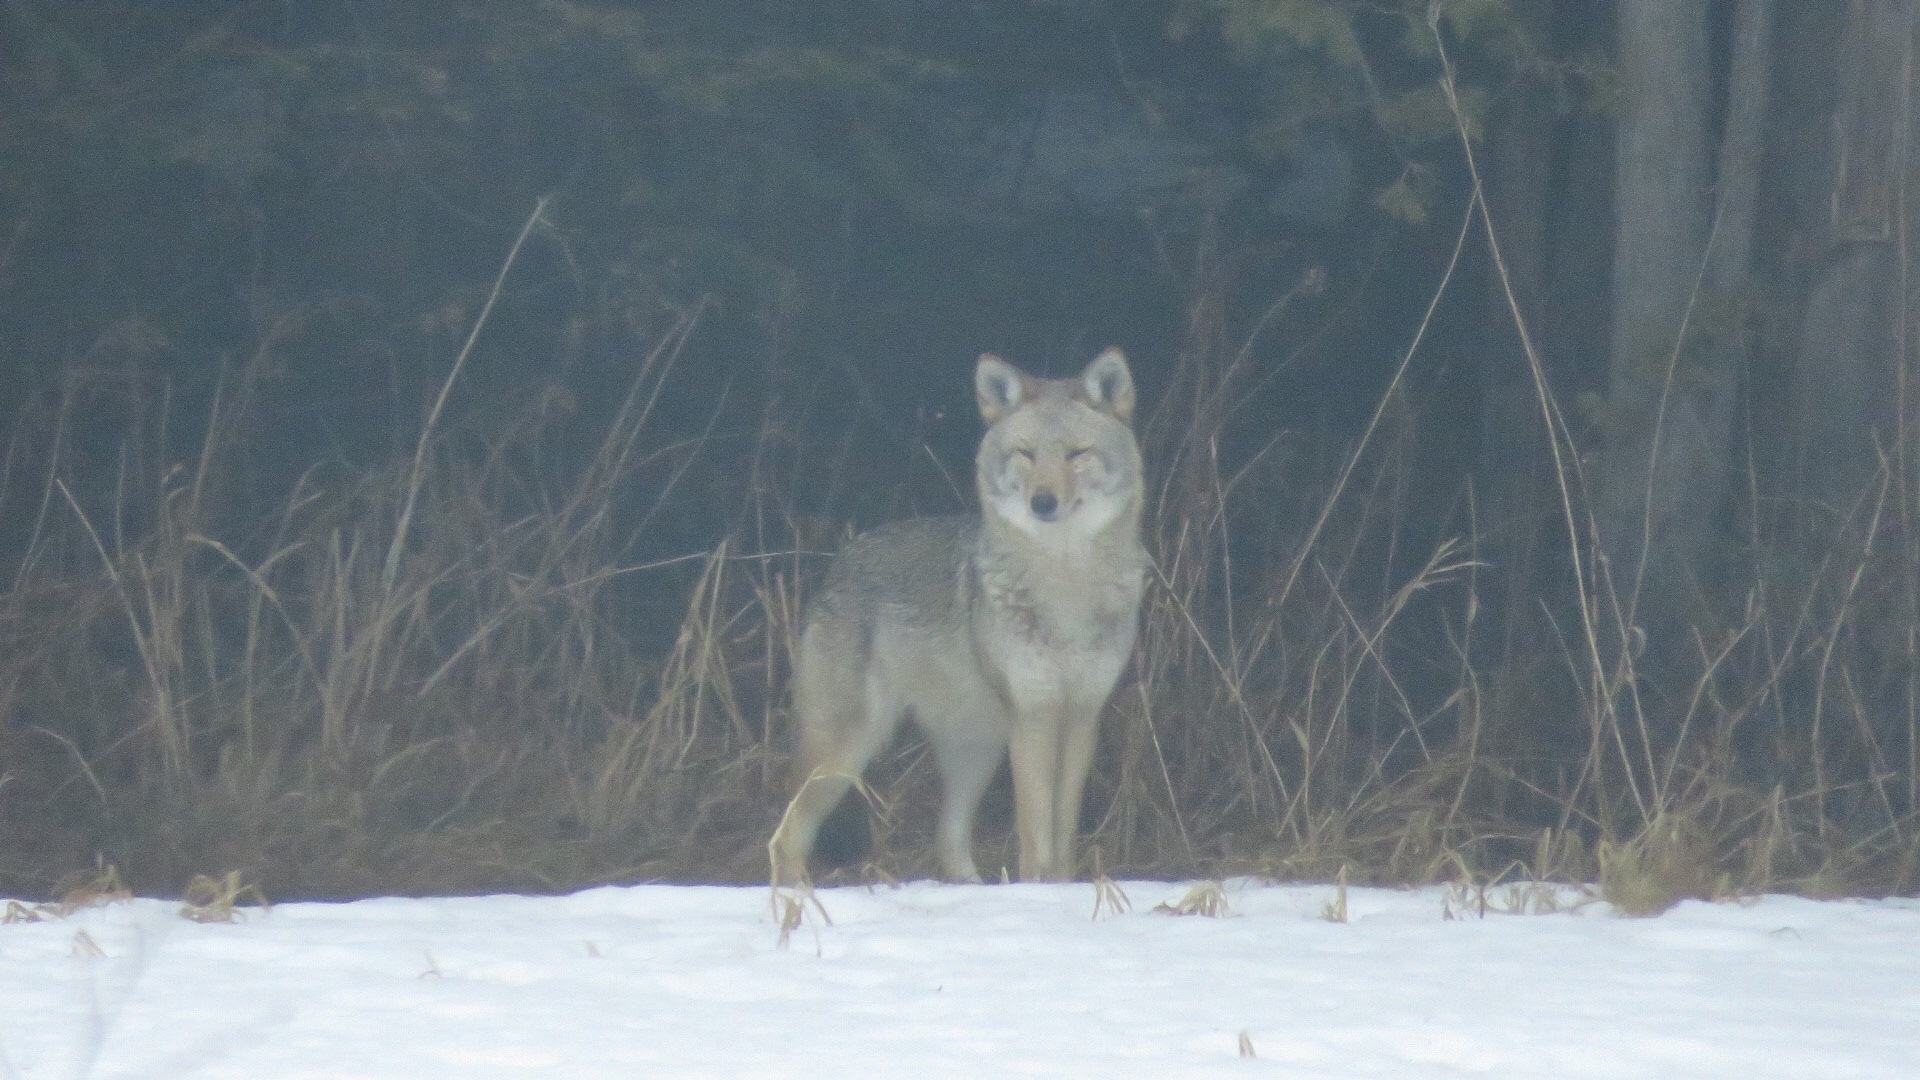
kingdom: Animalia
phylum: Chordata
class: Mammalia
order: Carnivora
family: Canidae
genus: Canis
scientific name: Canis latrans
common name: Coyote
